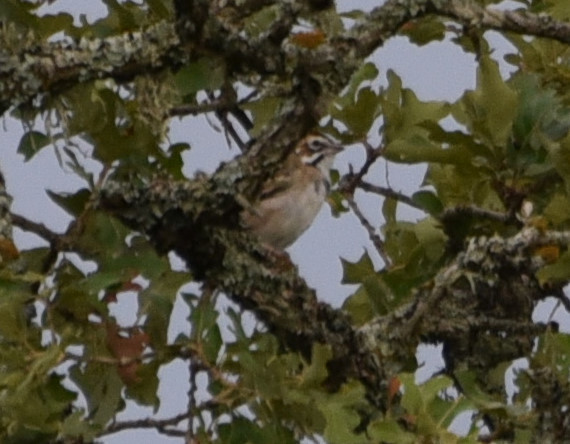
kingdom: Animalia
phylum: Chordata
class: Aves
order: Passeriformes
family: Passerellidae
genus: Chondestes
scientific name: Chondestes grammacus
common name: Lark sparrow
